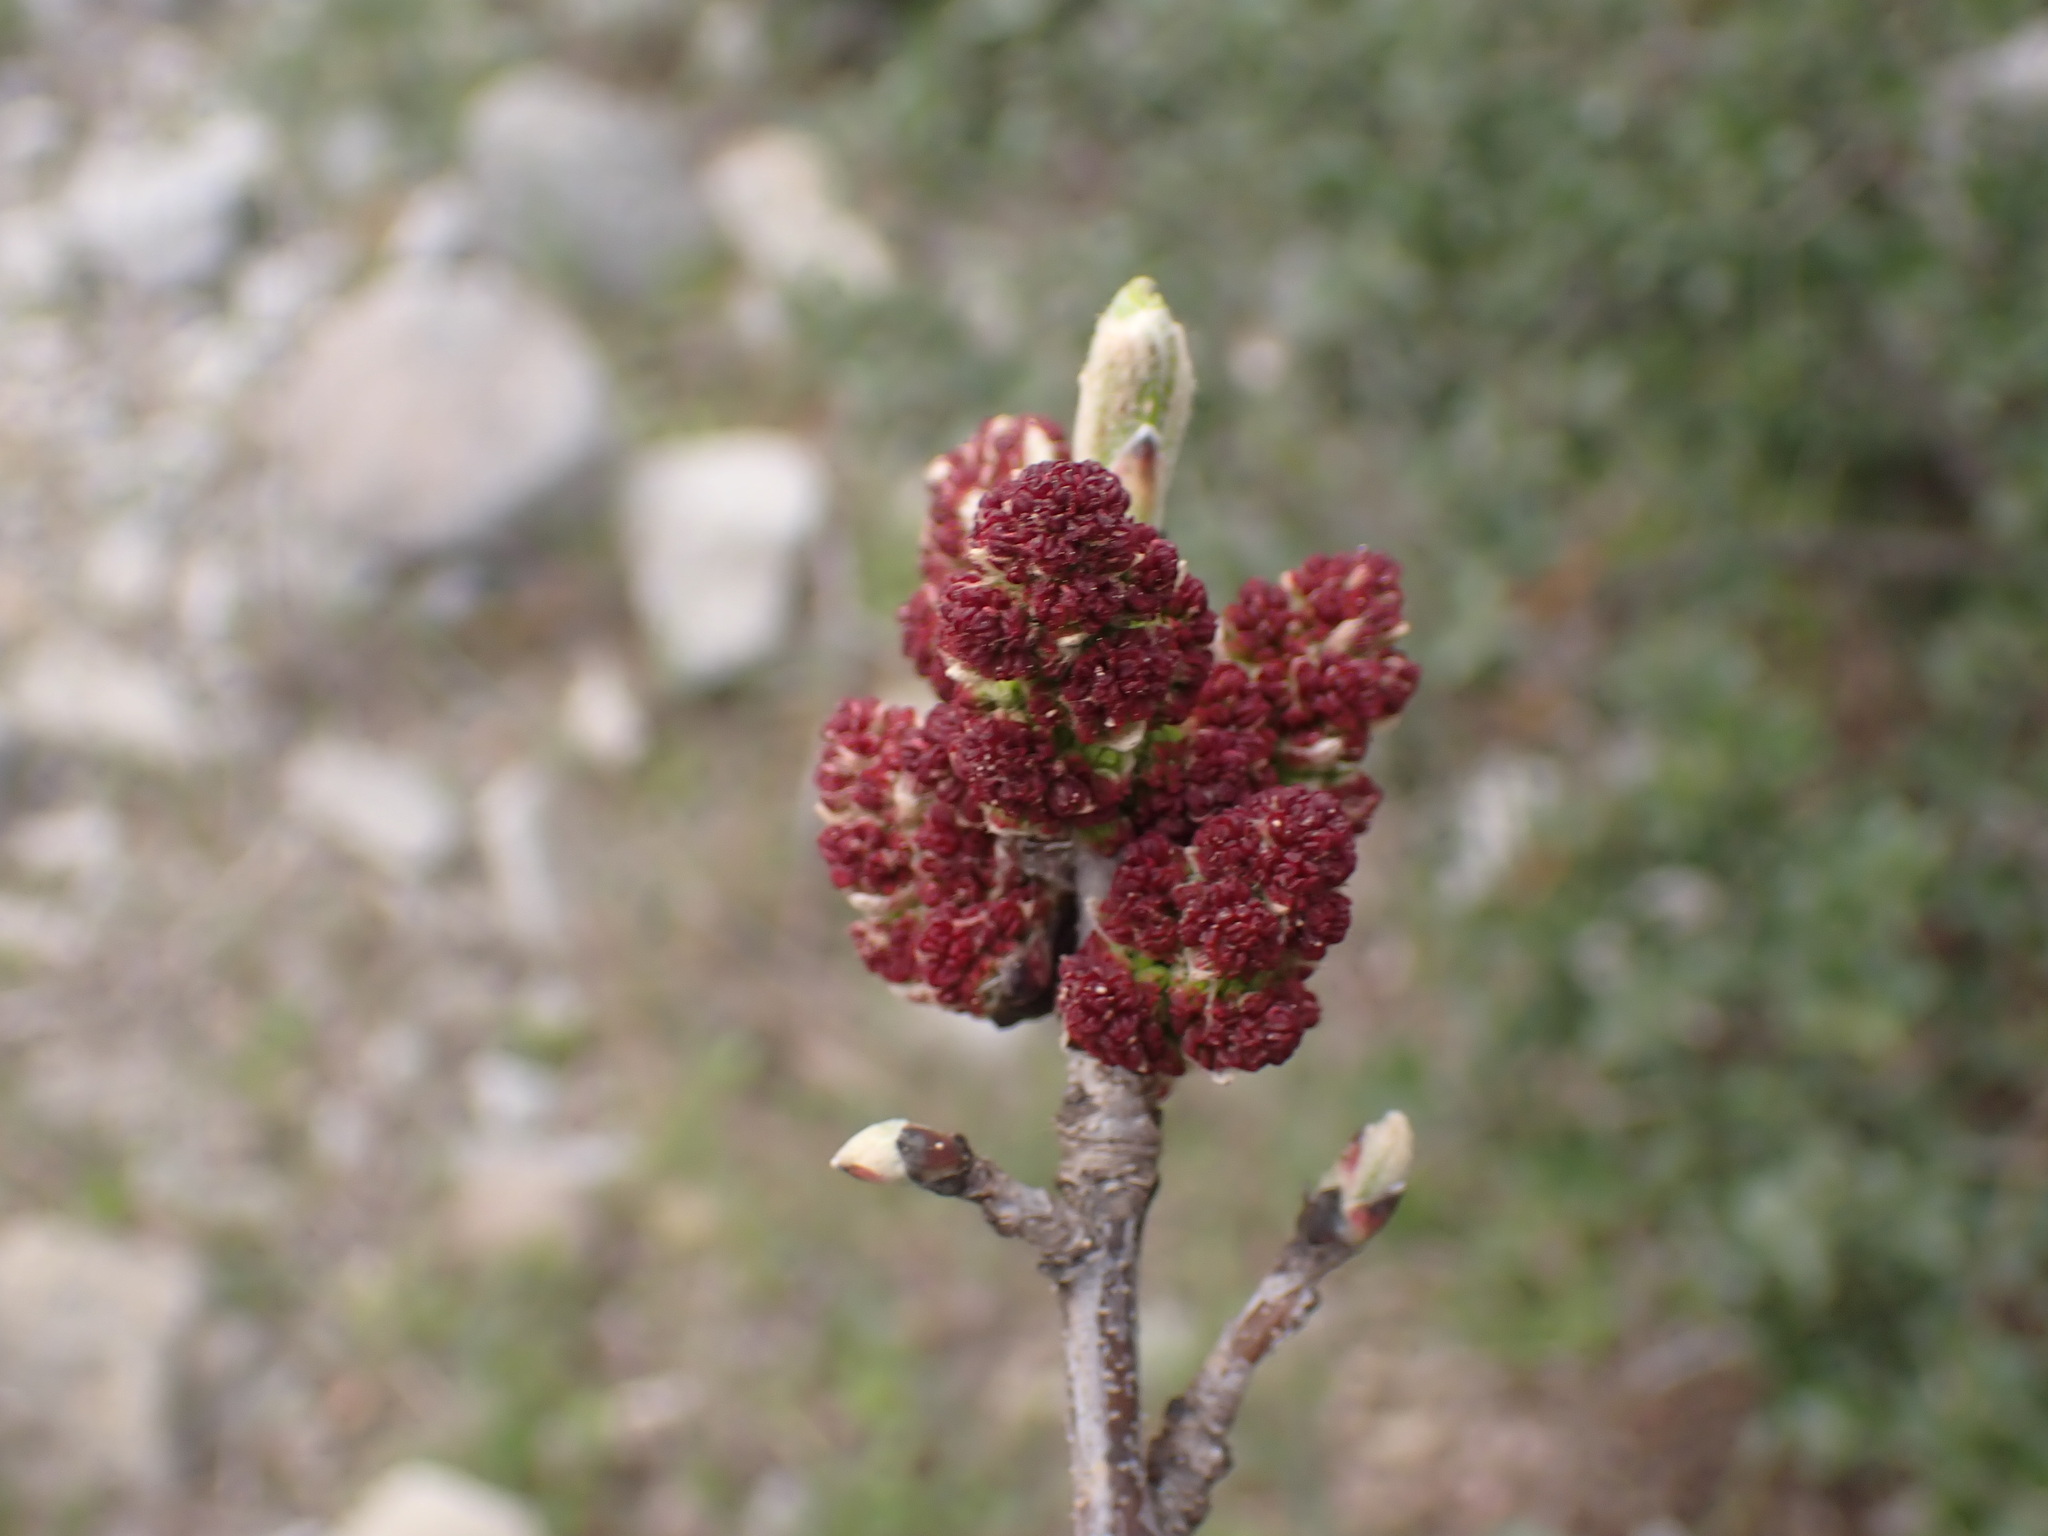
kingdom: Plantae
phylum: Tracheophyta
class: Magnoliopsida
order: Sapindales
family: Anacardiaceae
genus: Pistacia
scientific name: Pistacia terebinthus
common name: Terebinth
